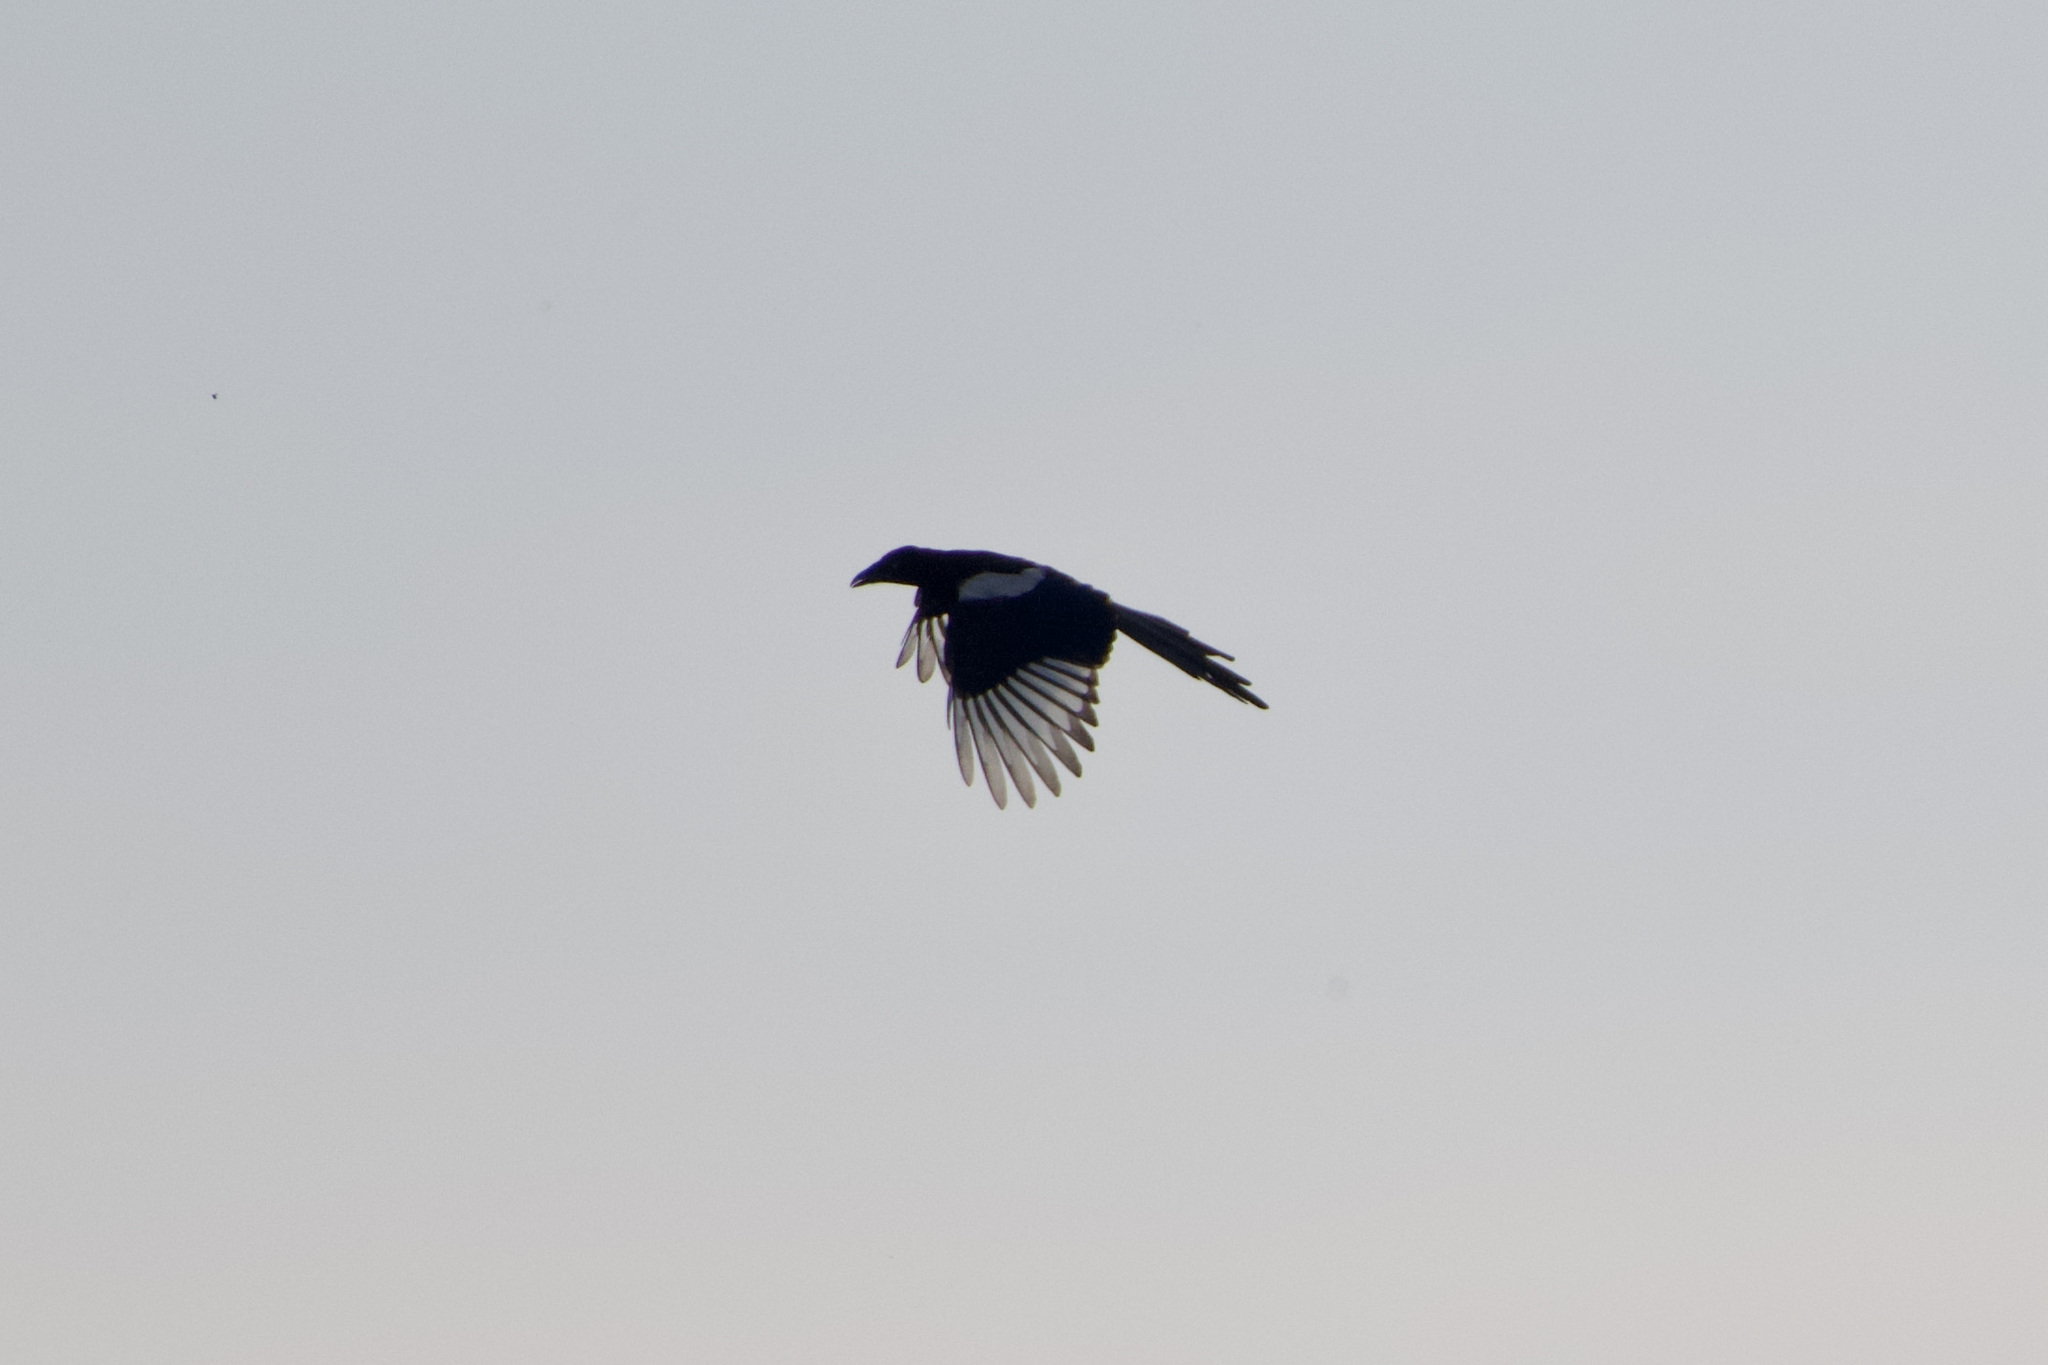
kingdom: Animalia
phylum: Chordata
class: Aves
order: Passeriformes
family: Corvidae
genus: Pica
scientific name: Pica pica
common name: Eurasian magpie
